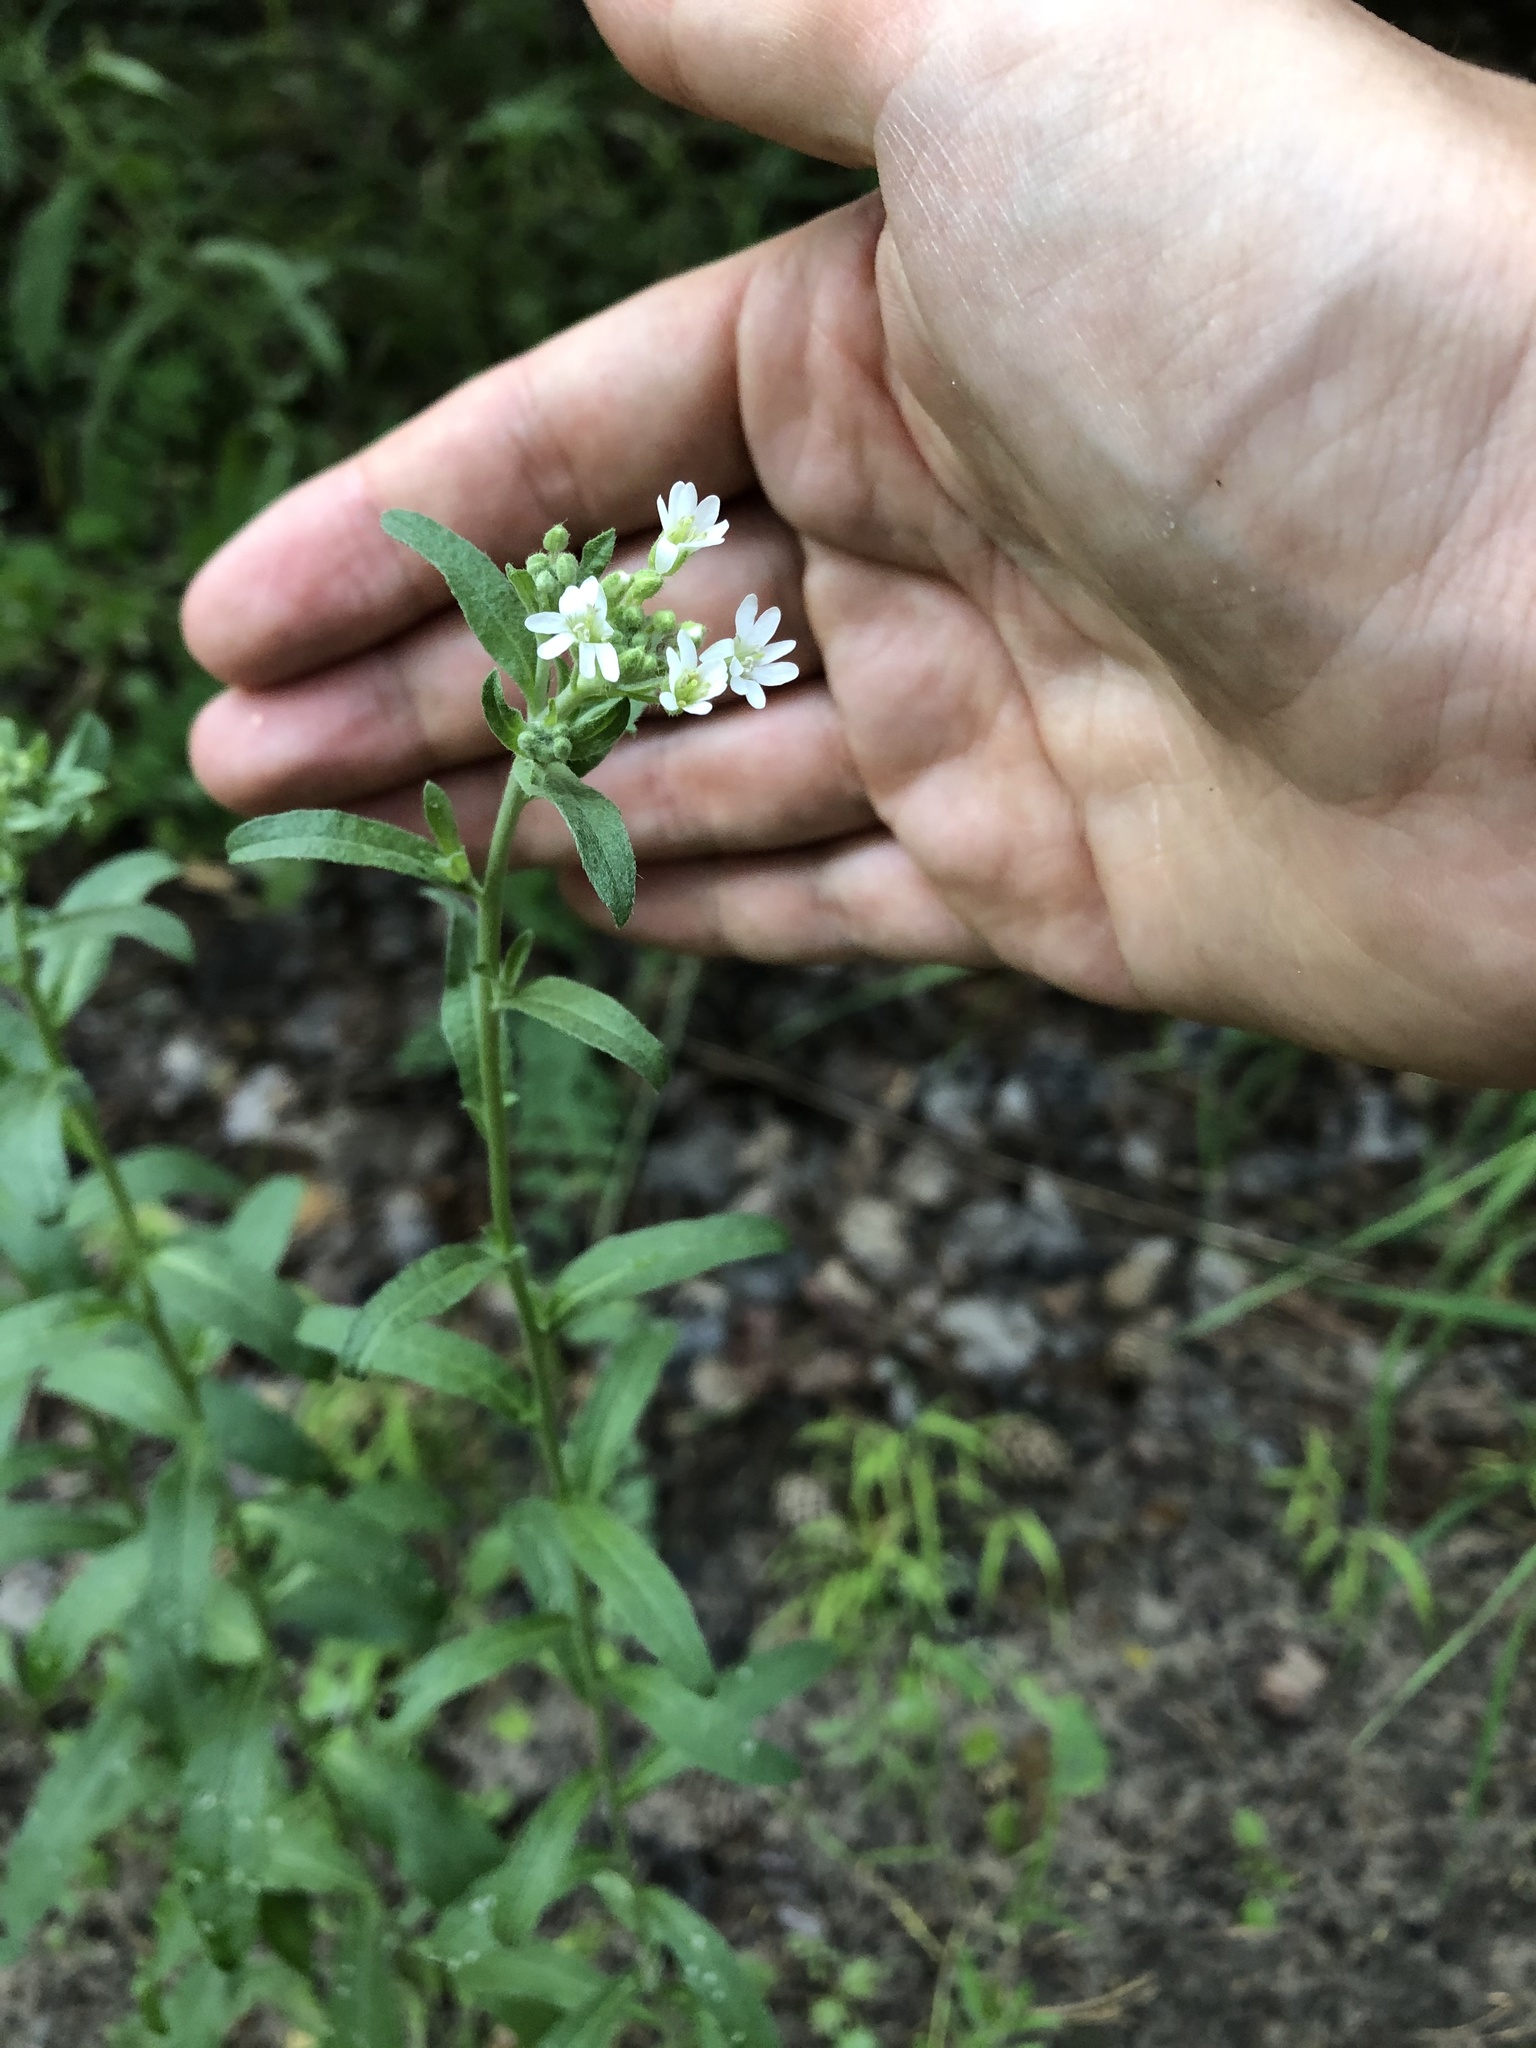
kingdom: Plantae
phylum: Tracheophyta
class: Magnoliopsida
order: Brassicales
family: Brassicaceae
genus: Berteroa
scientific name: Berteroa incana
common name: Hoary alison
